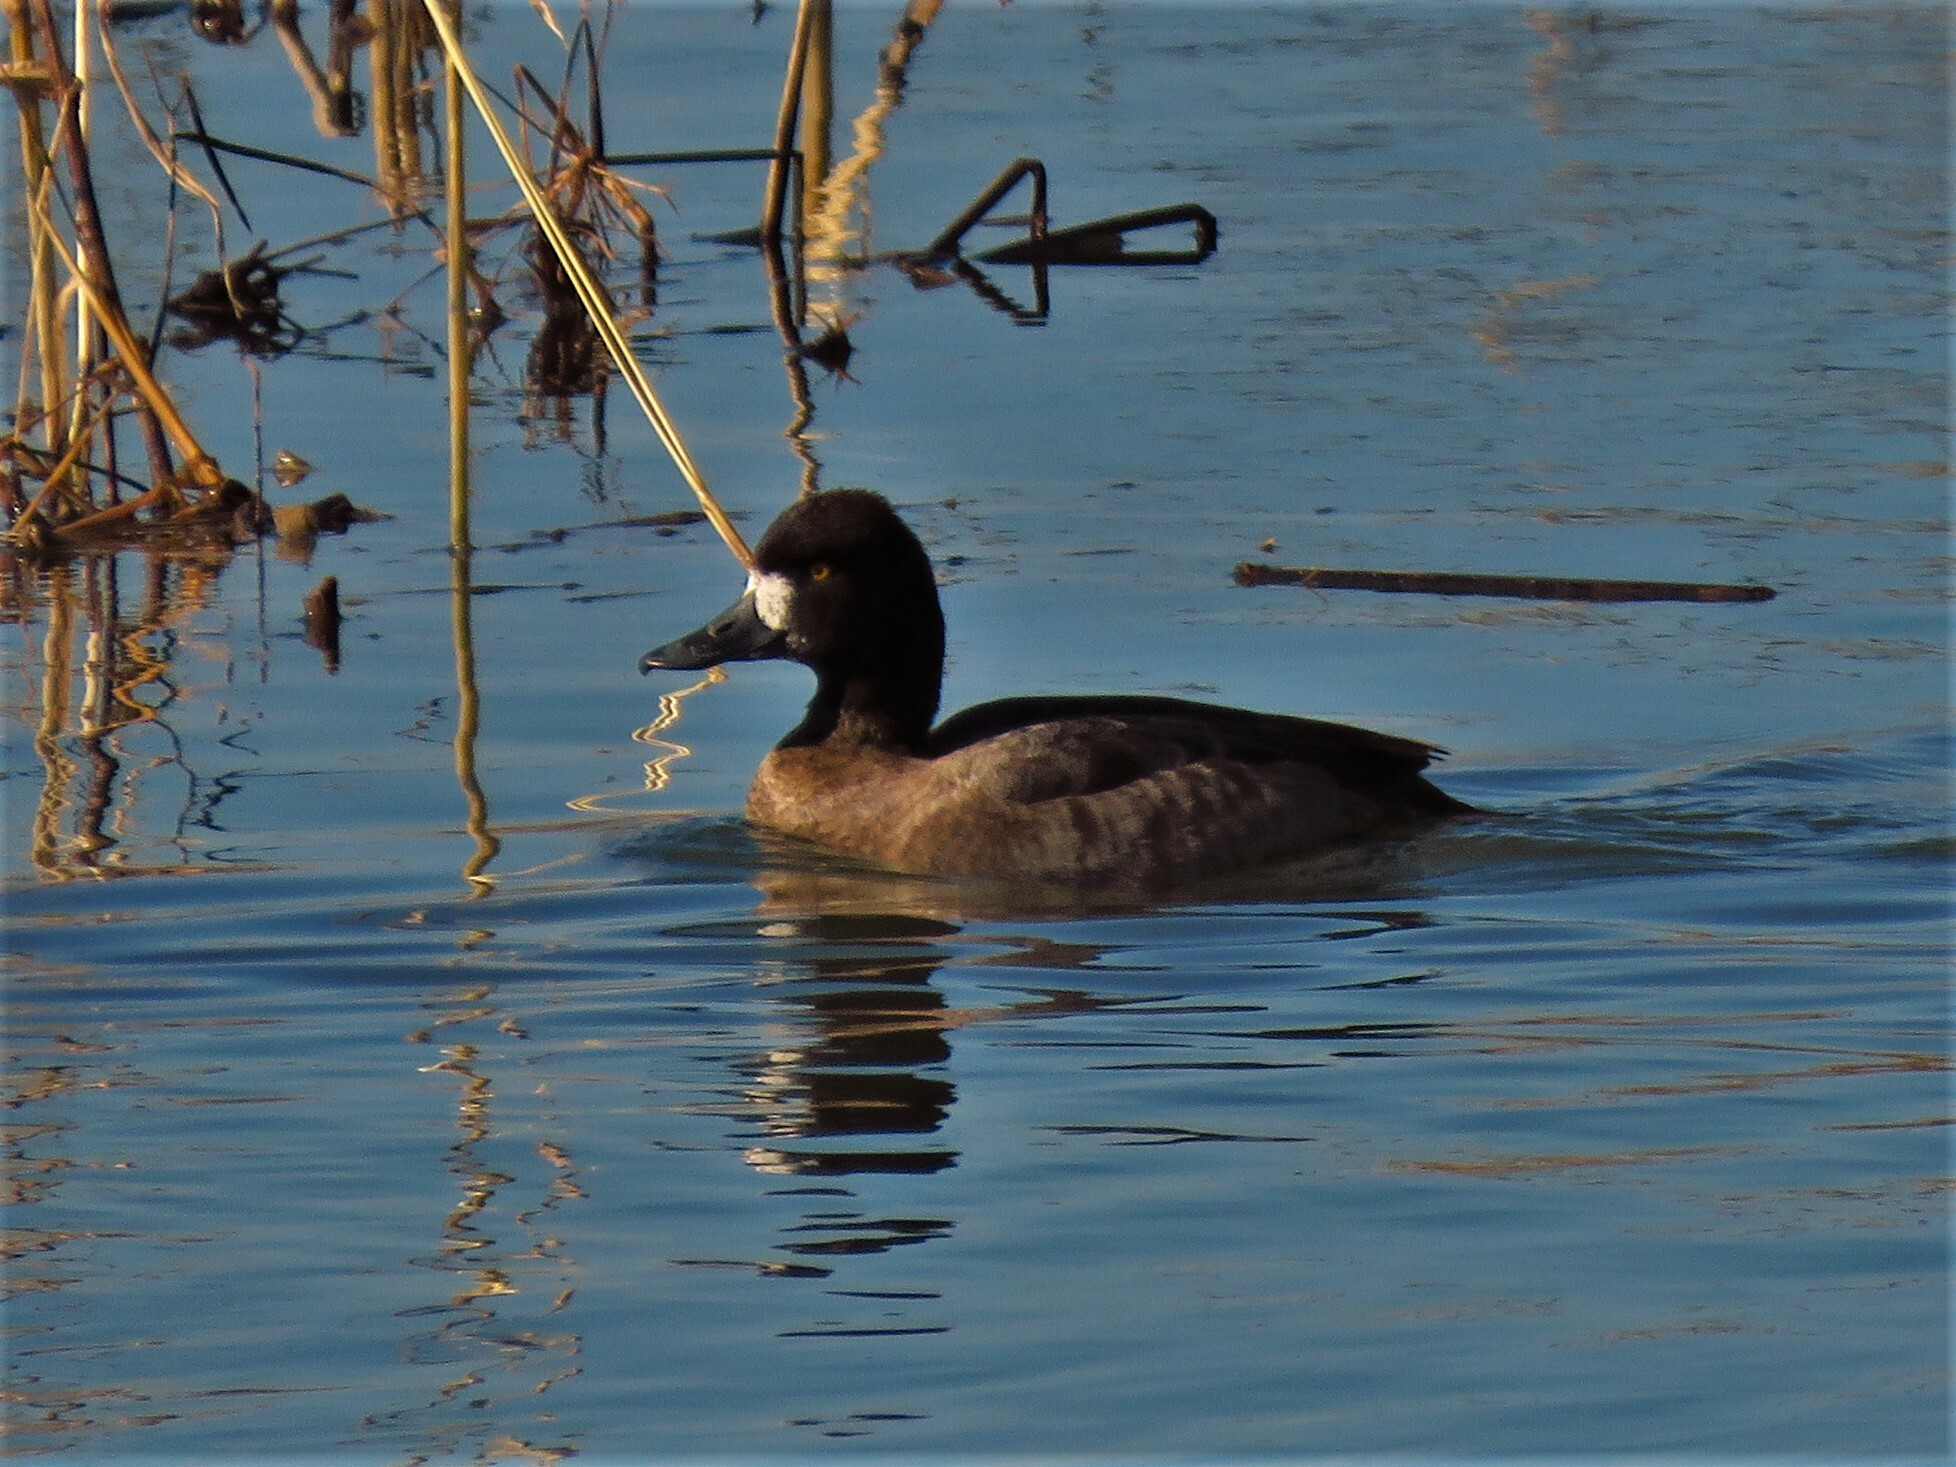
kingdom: Animalia
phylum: Chordata
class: Aves
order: Anseriformes
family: Anatidae
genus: Aythya
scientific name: Aythya affinis
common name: Lesser scaup
